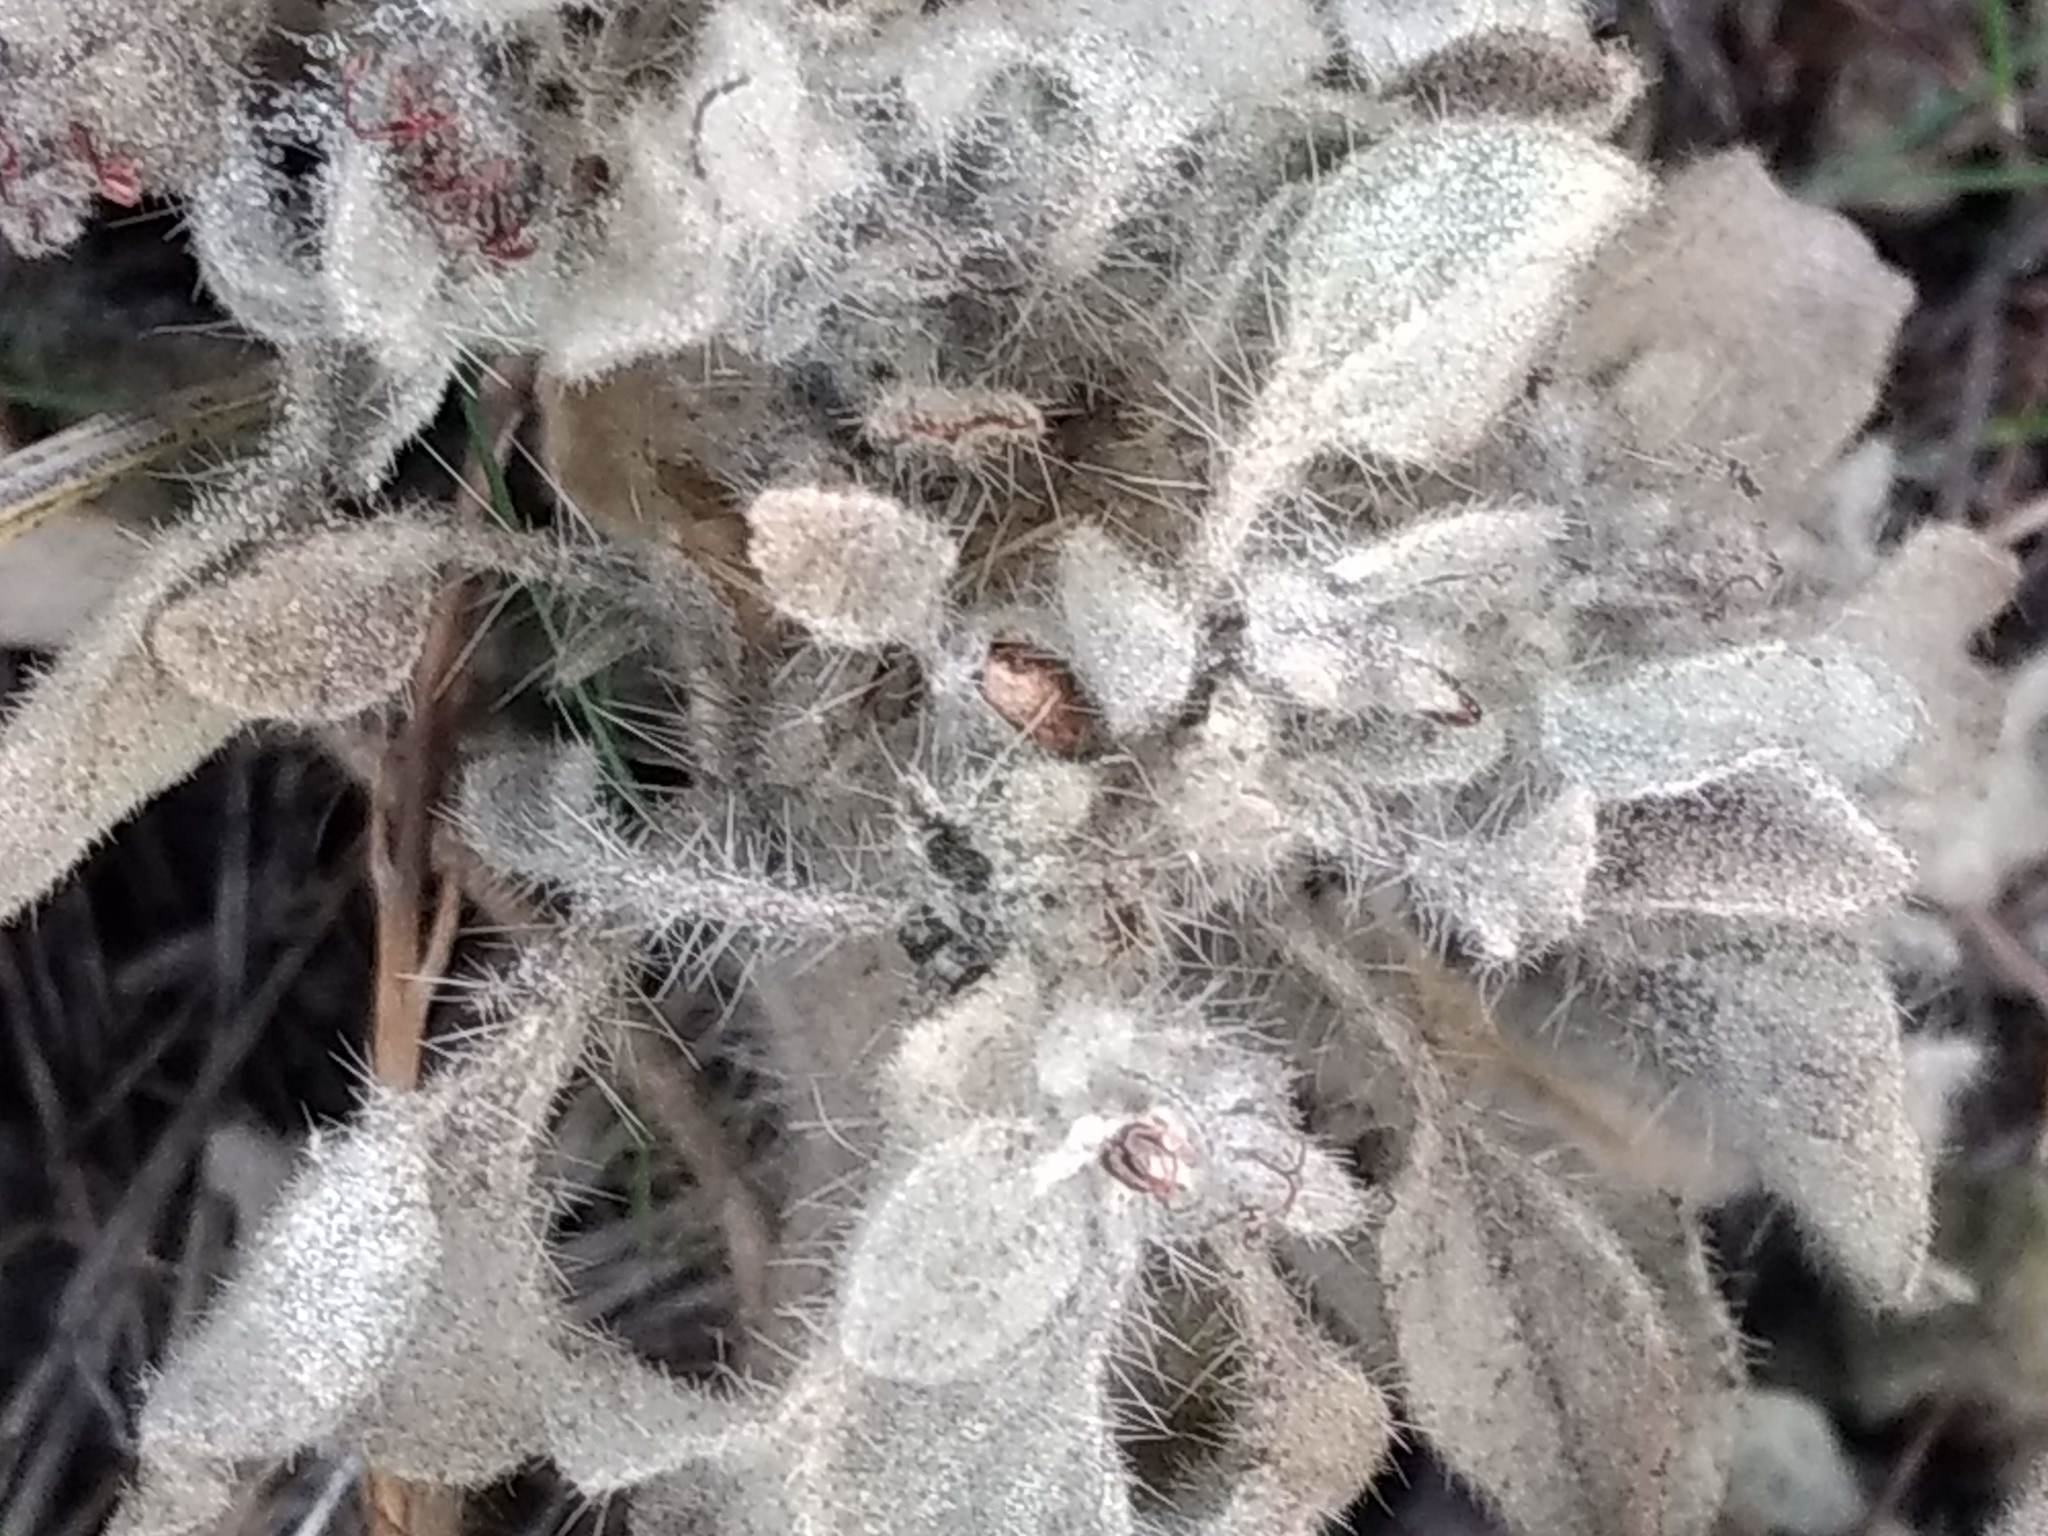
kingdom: Plantae
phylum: Tracheophyta
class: Magnoliopsida
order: Malpighiales
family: Euphorbiaceae
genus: Croton
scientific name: Croton setiger
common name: Dove weed
